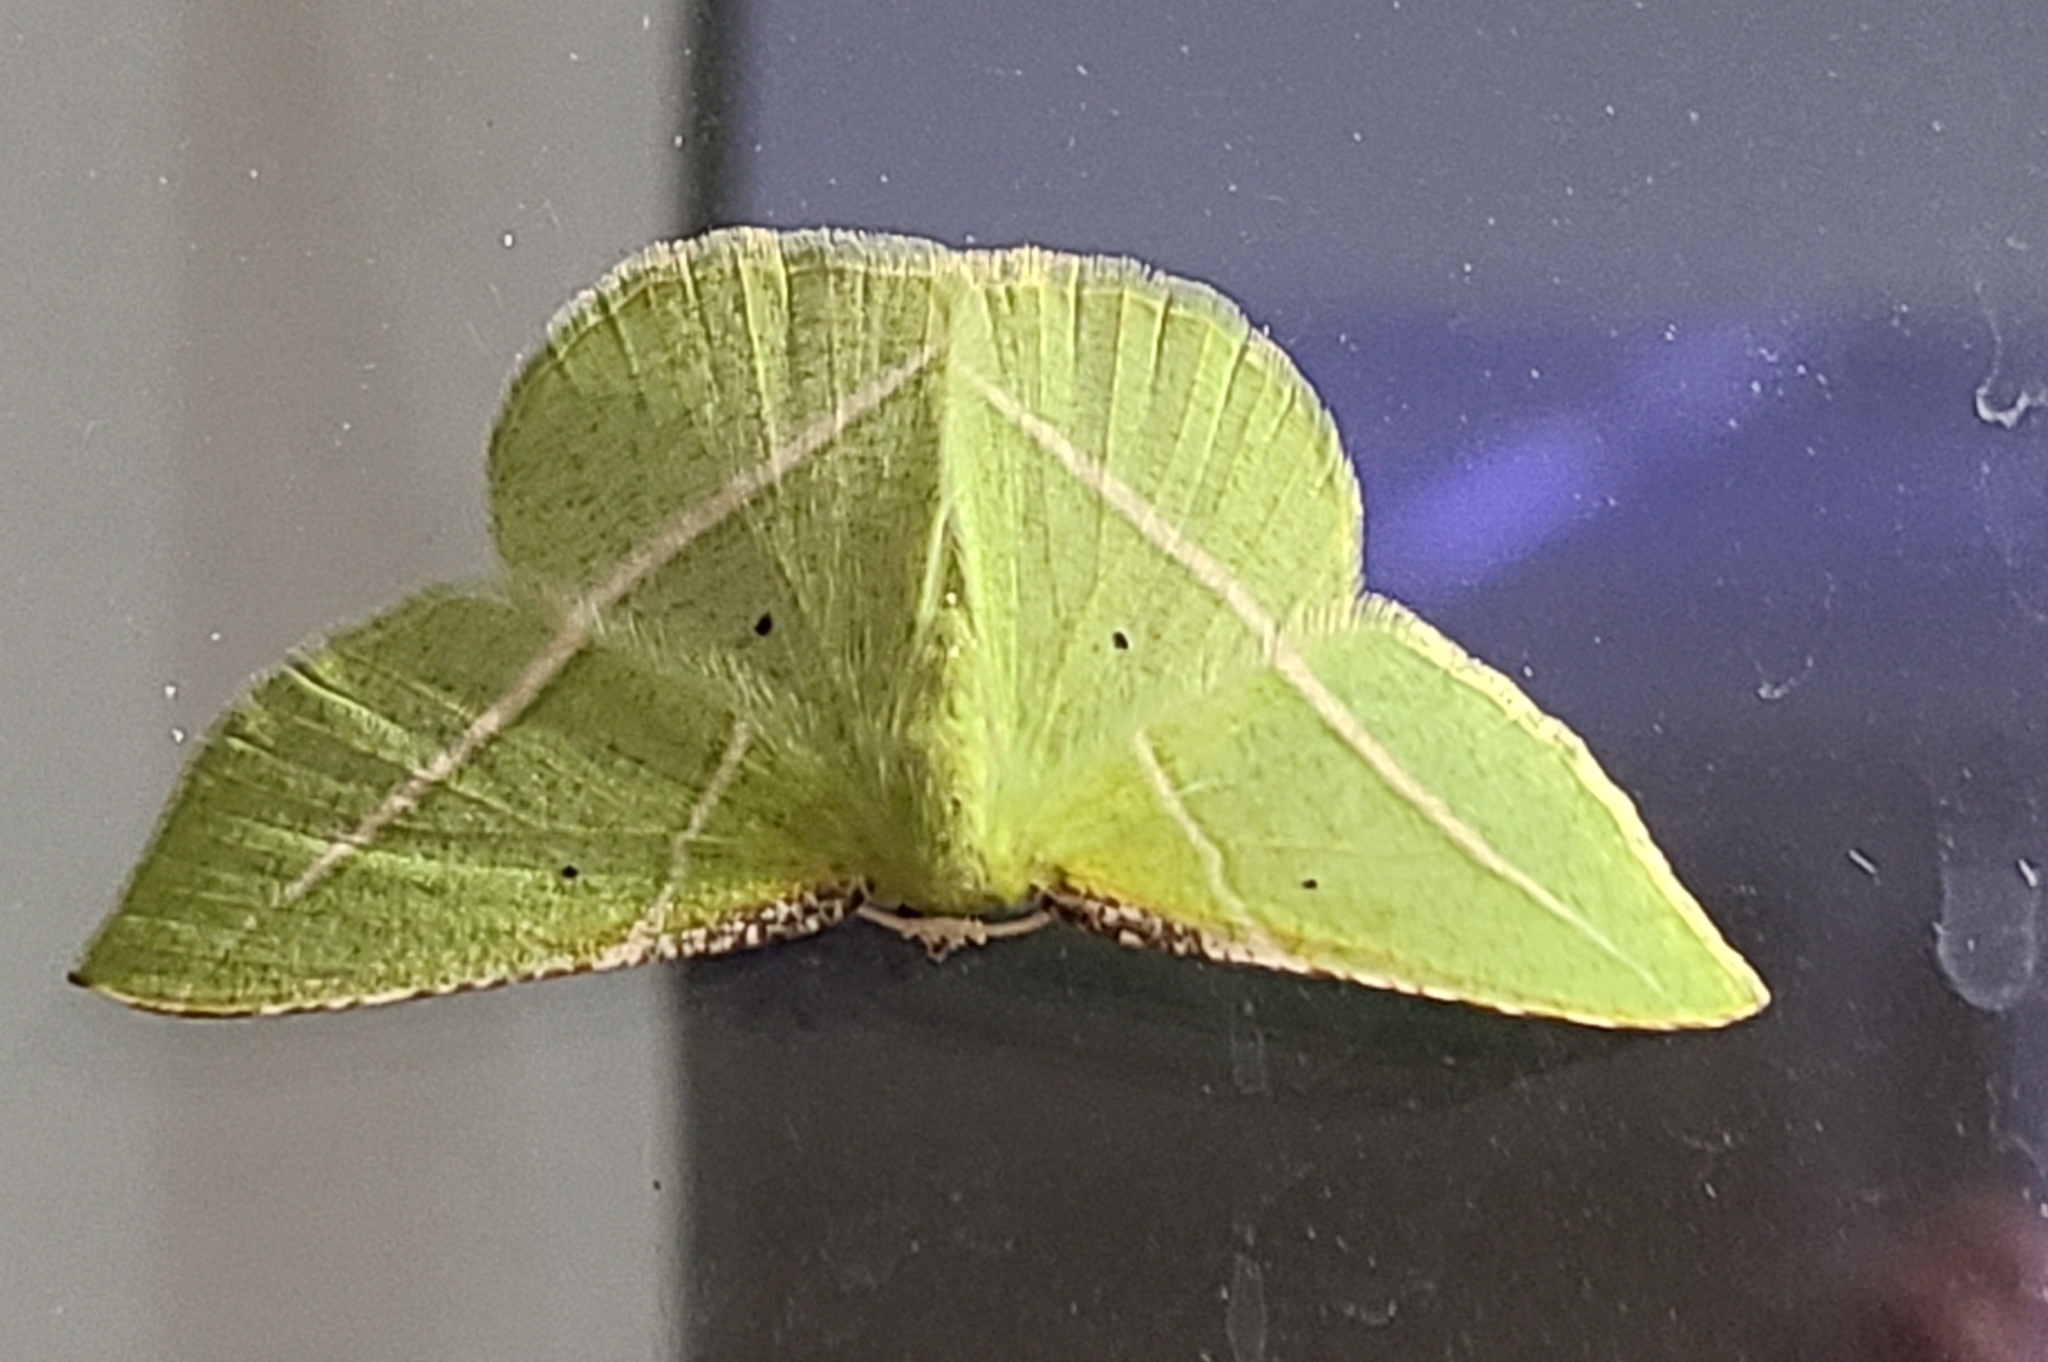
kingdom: Animalia
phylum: Arthropoda
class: Insecta
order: Lepidoptera
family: Geometridae
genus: Dichorda
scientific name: Dichorda illustraria
